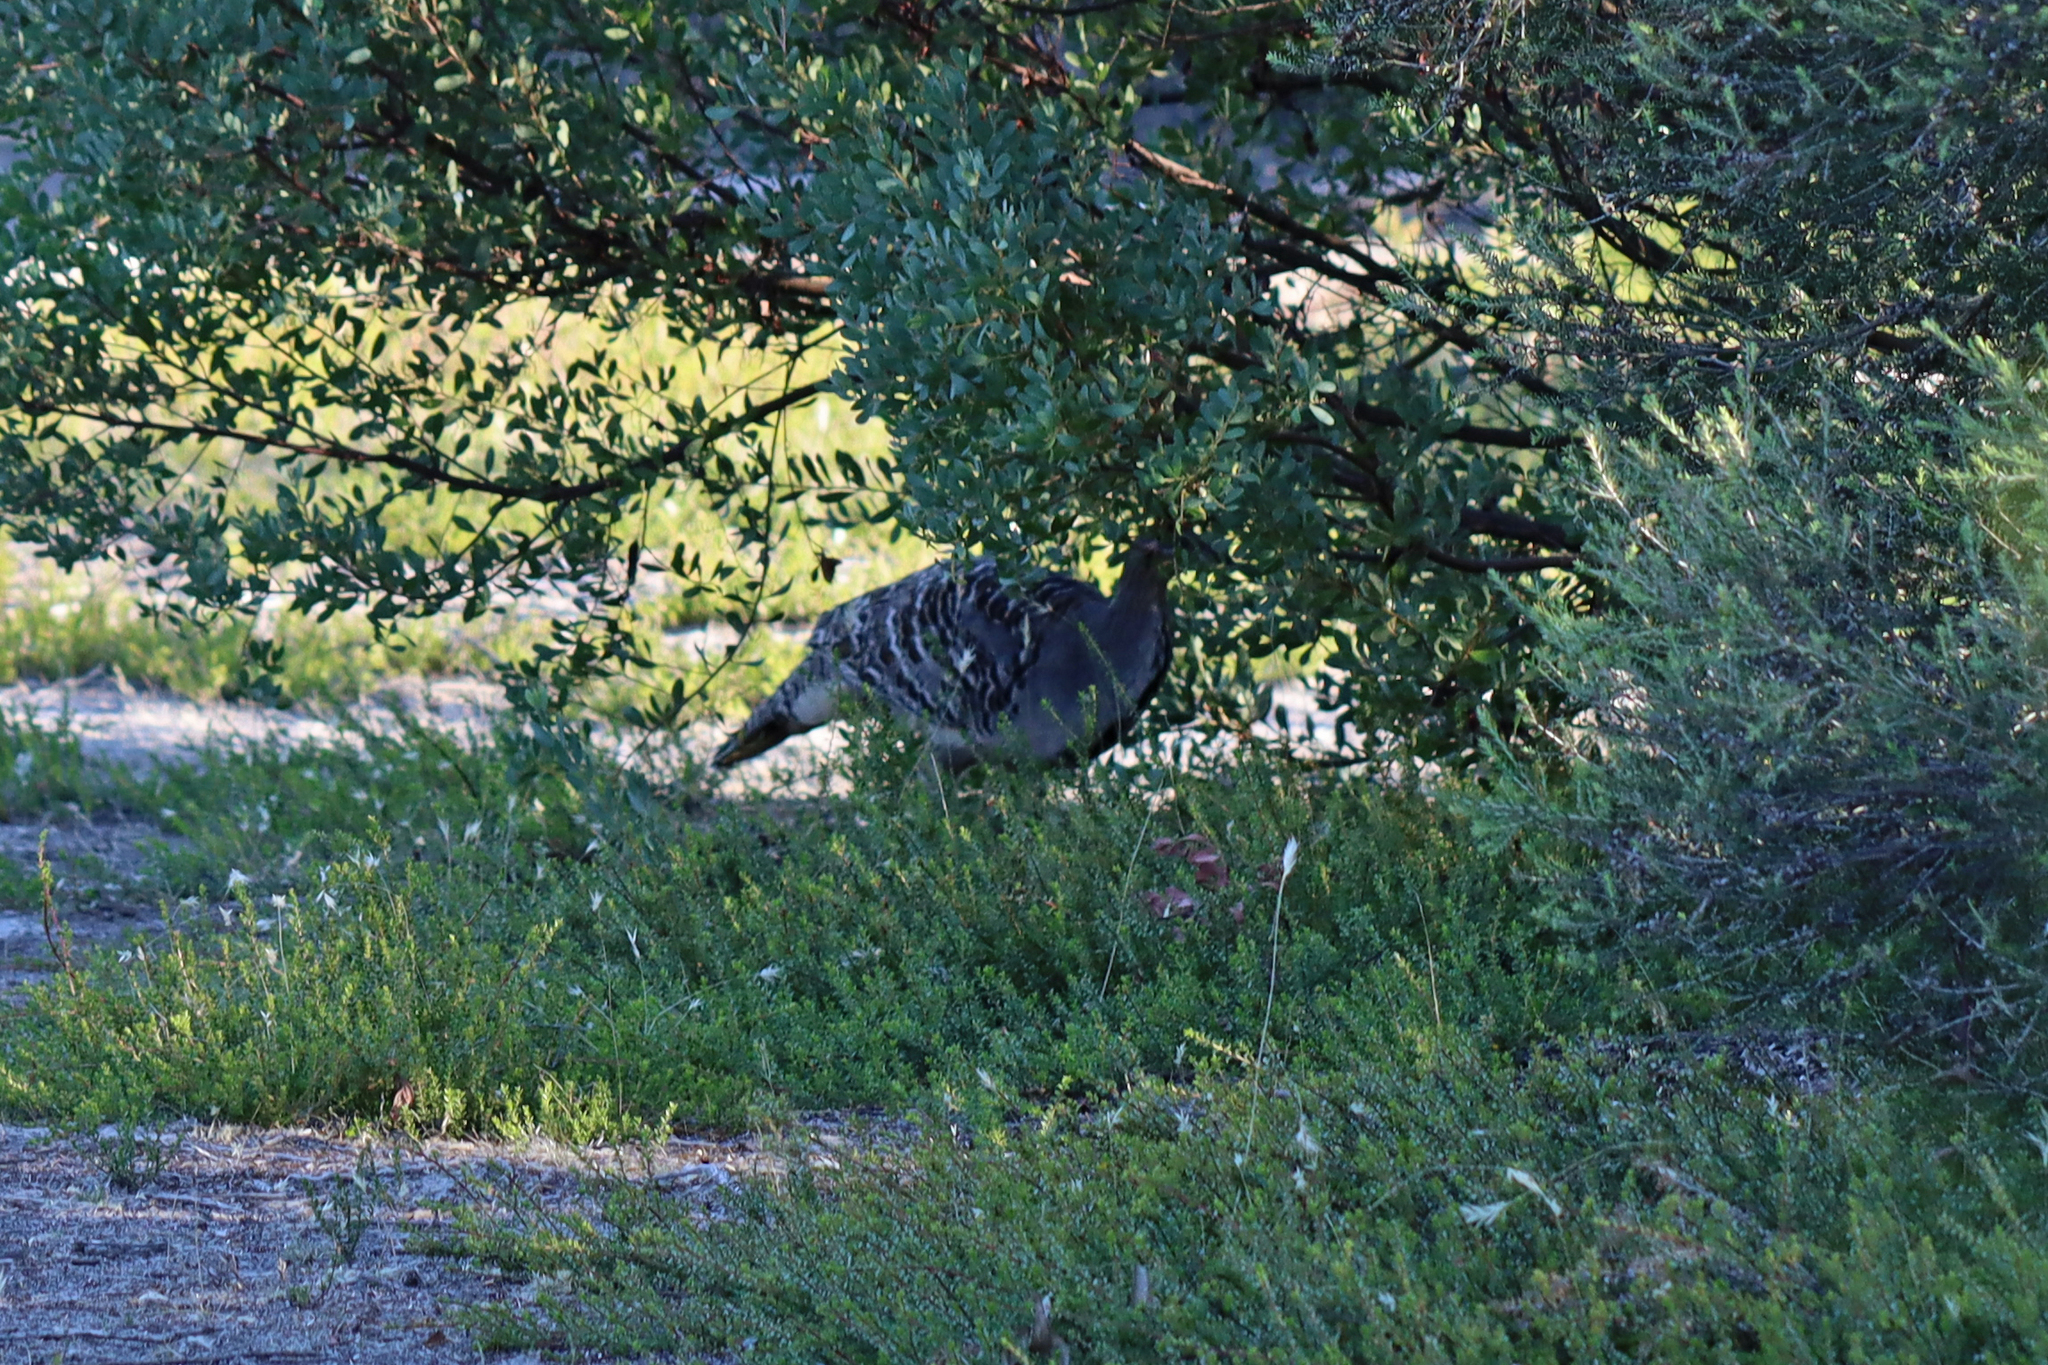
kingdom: Animalia
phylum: Chordata
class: Aves
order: Galliformes
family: Megapodiidae
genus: Leipoa
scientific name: Leipoa ocellata
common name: Malleefowl
